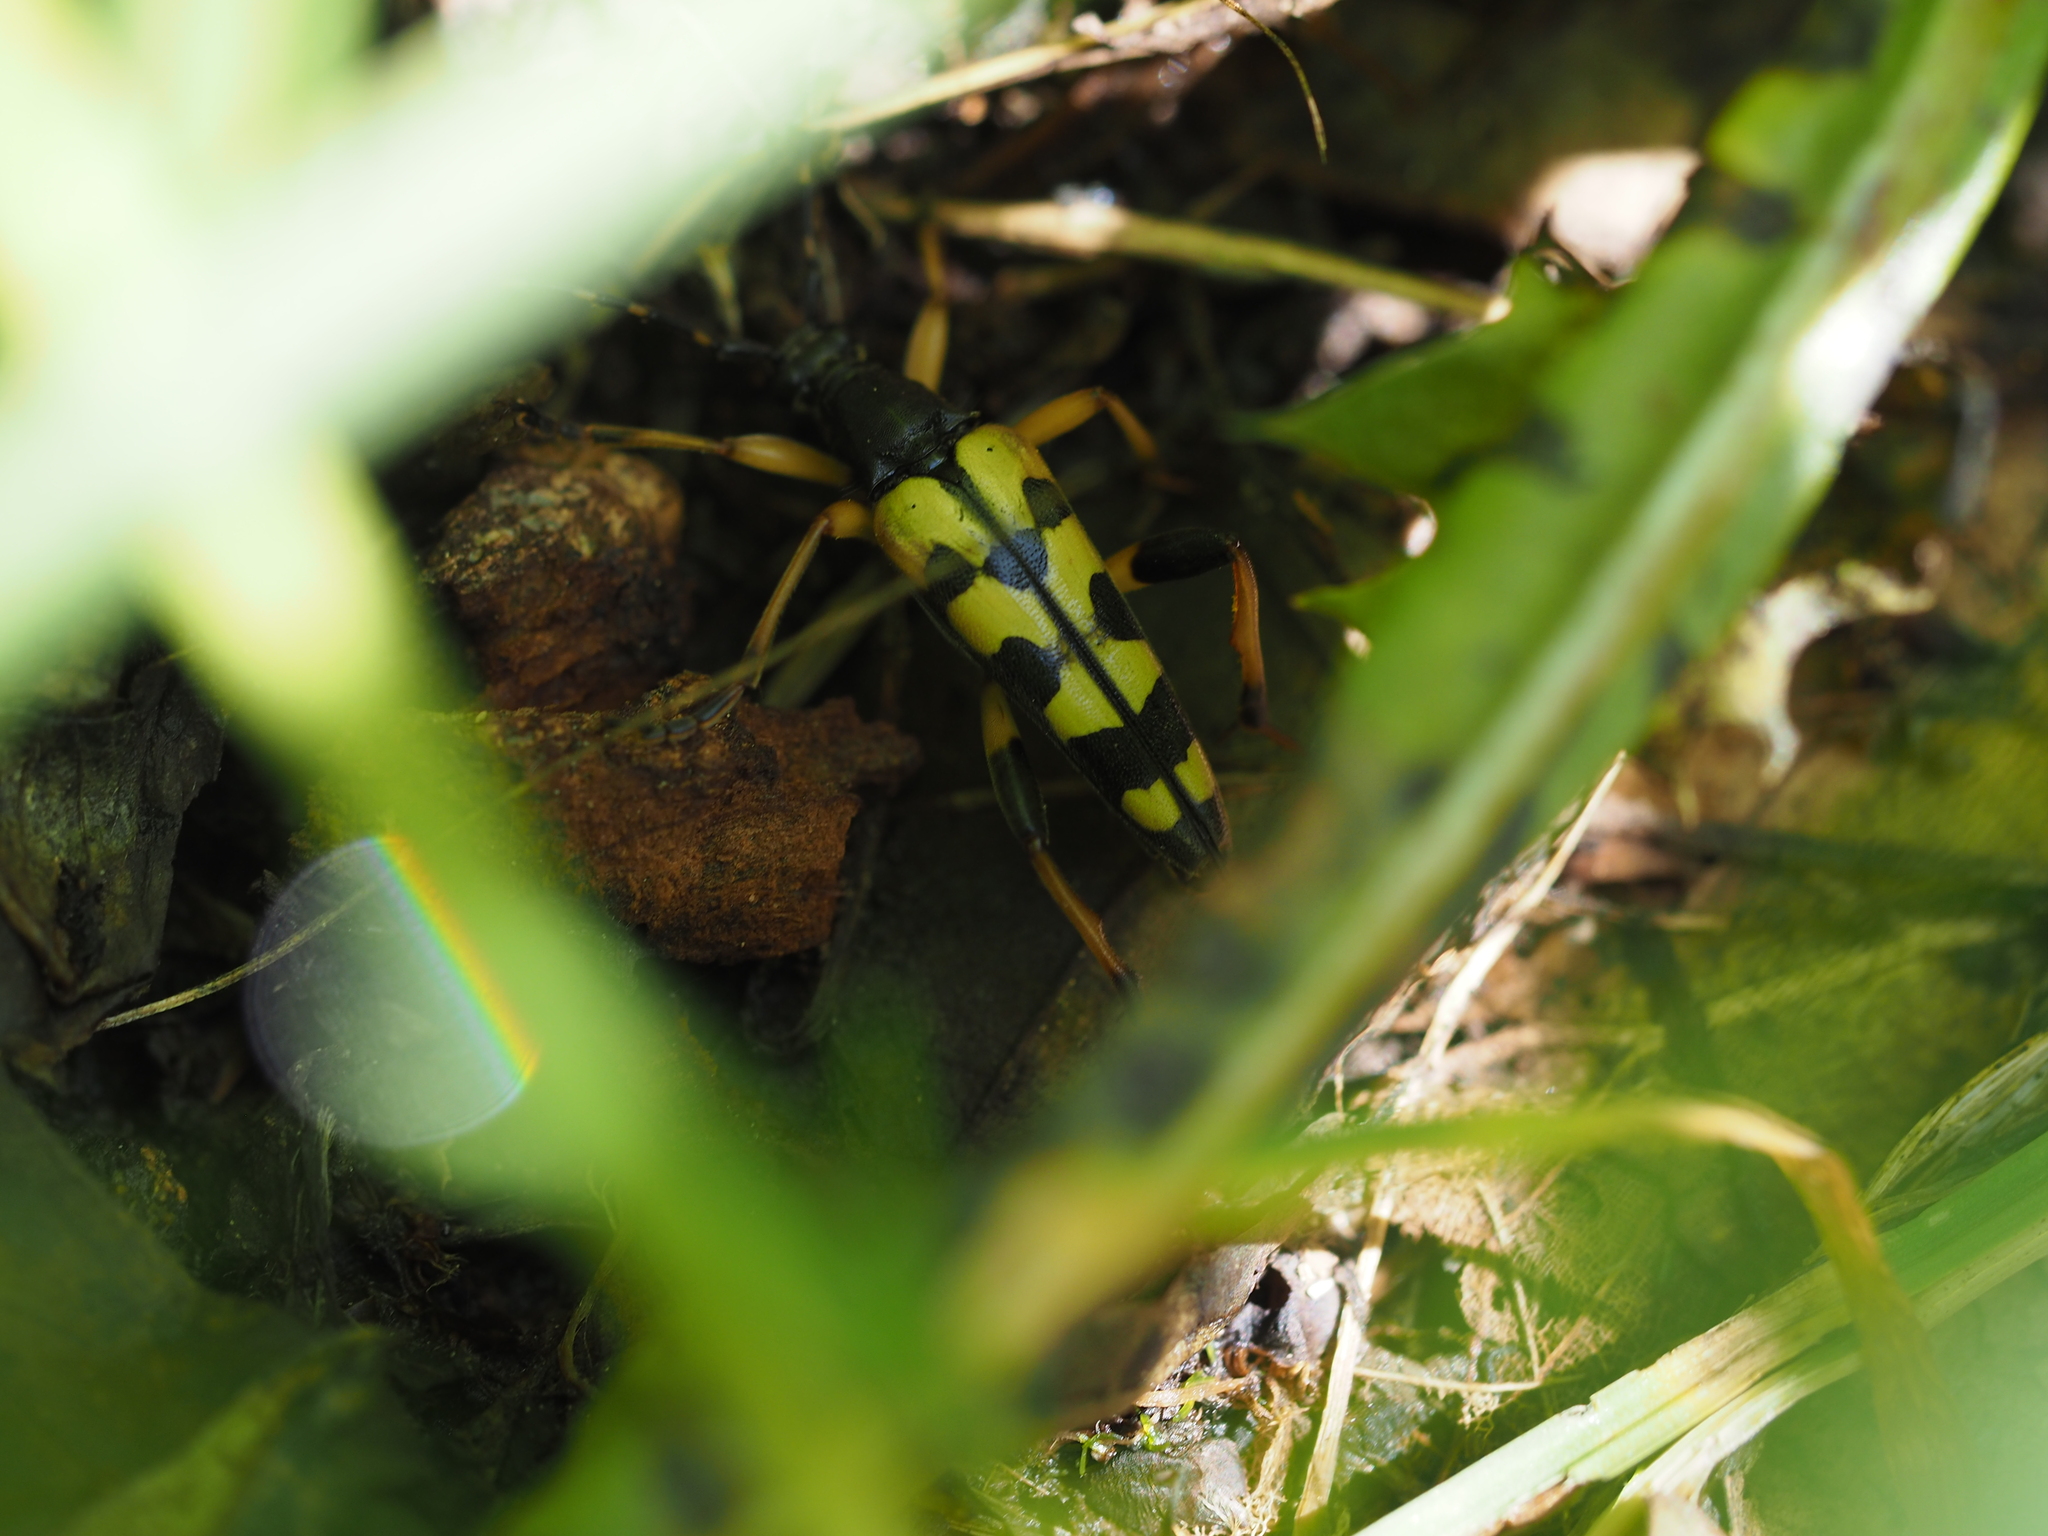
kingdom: Animalia
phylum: Arthropoda
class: Insecta
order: Coleoptera
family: Cerambycidae
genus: Rutpela
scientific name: Rutpela maculata
